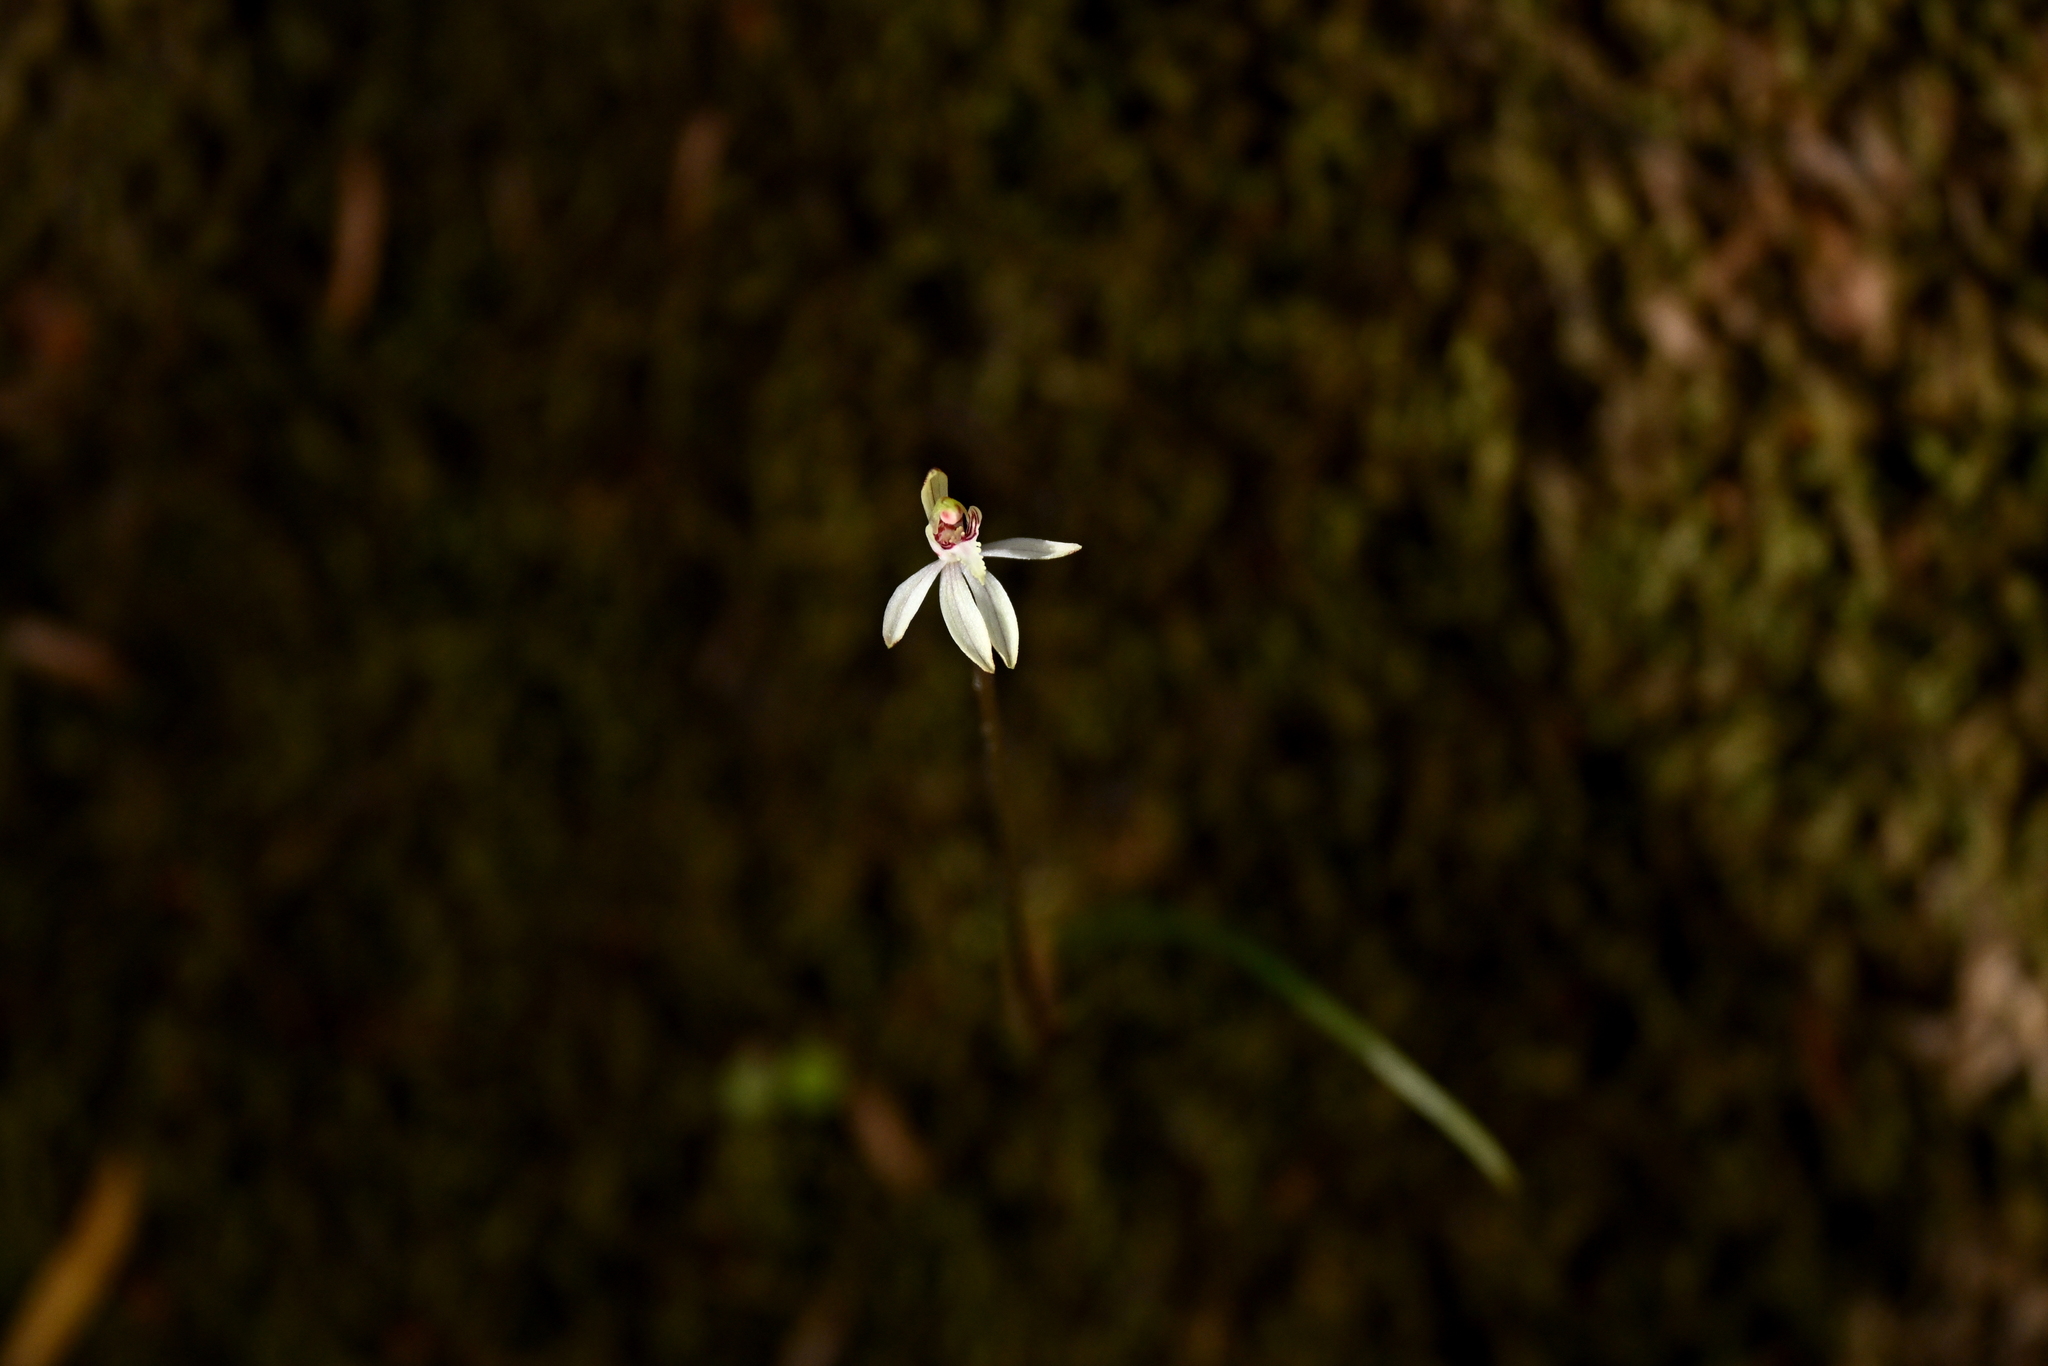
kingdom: Plantae
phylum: Tracheophyta
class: Liliopsida
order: Asparagales
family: Orchidaceae
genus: Caladenia
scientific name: Caladenia chlorostyla
